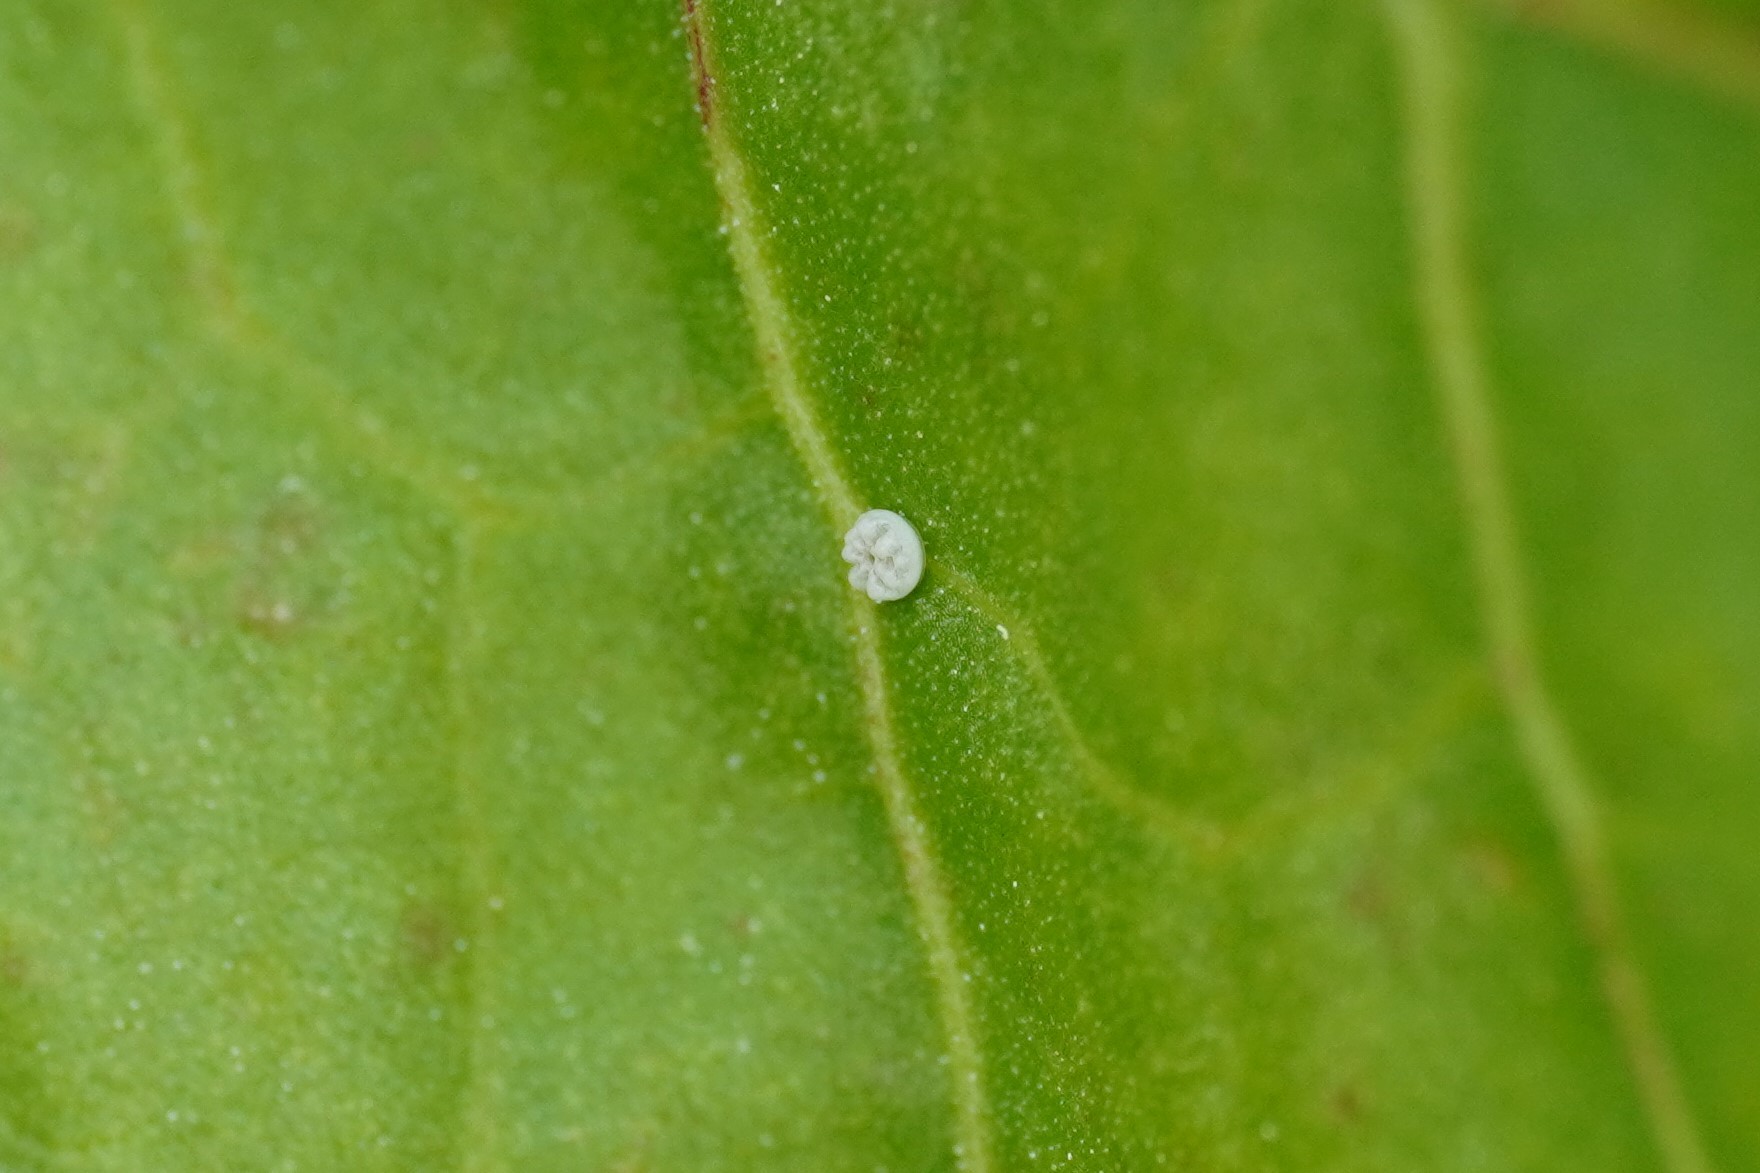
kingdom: Animalia
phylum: Arthropoda
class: Insecta
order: Lepidoptera
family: Lycaenidae
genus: Lycaena
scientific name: Lycaena dispar
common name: Large copper
